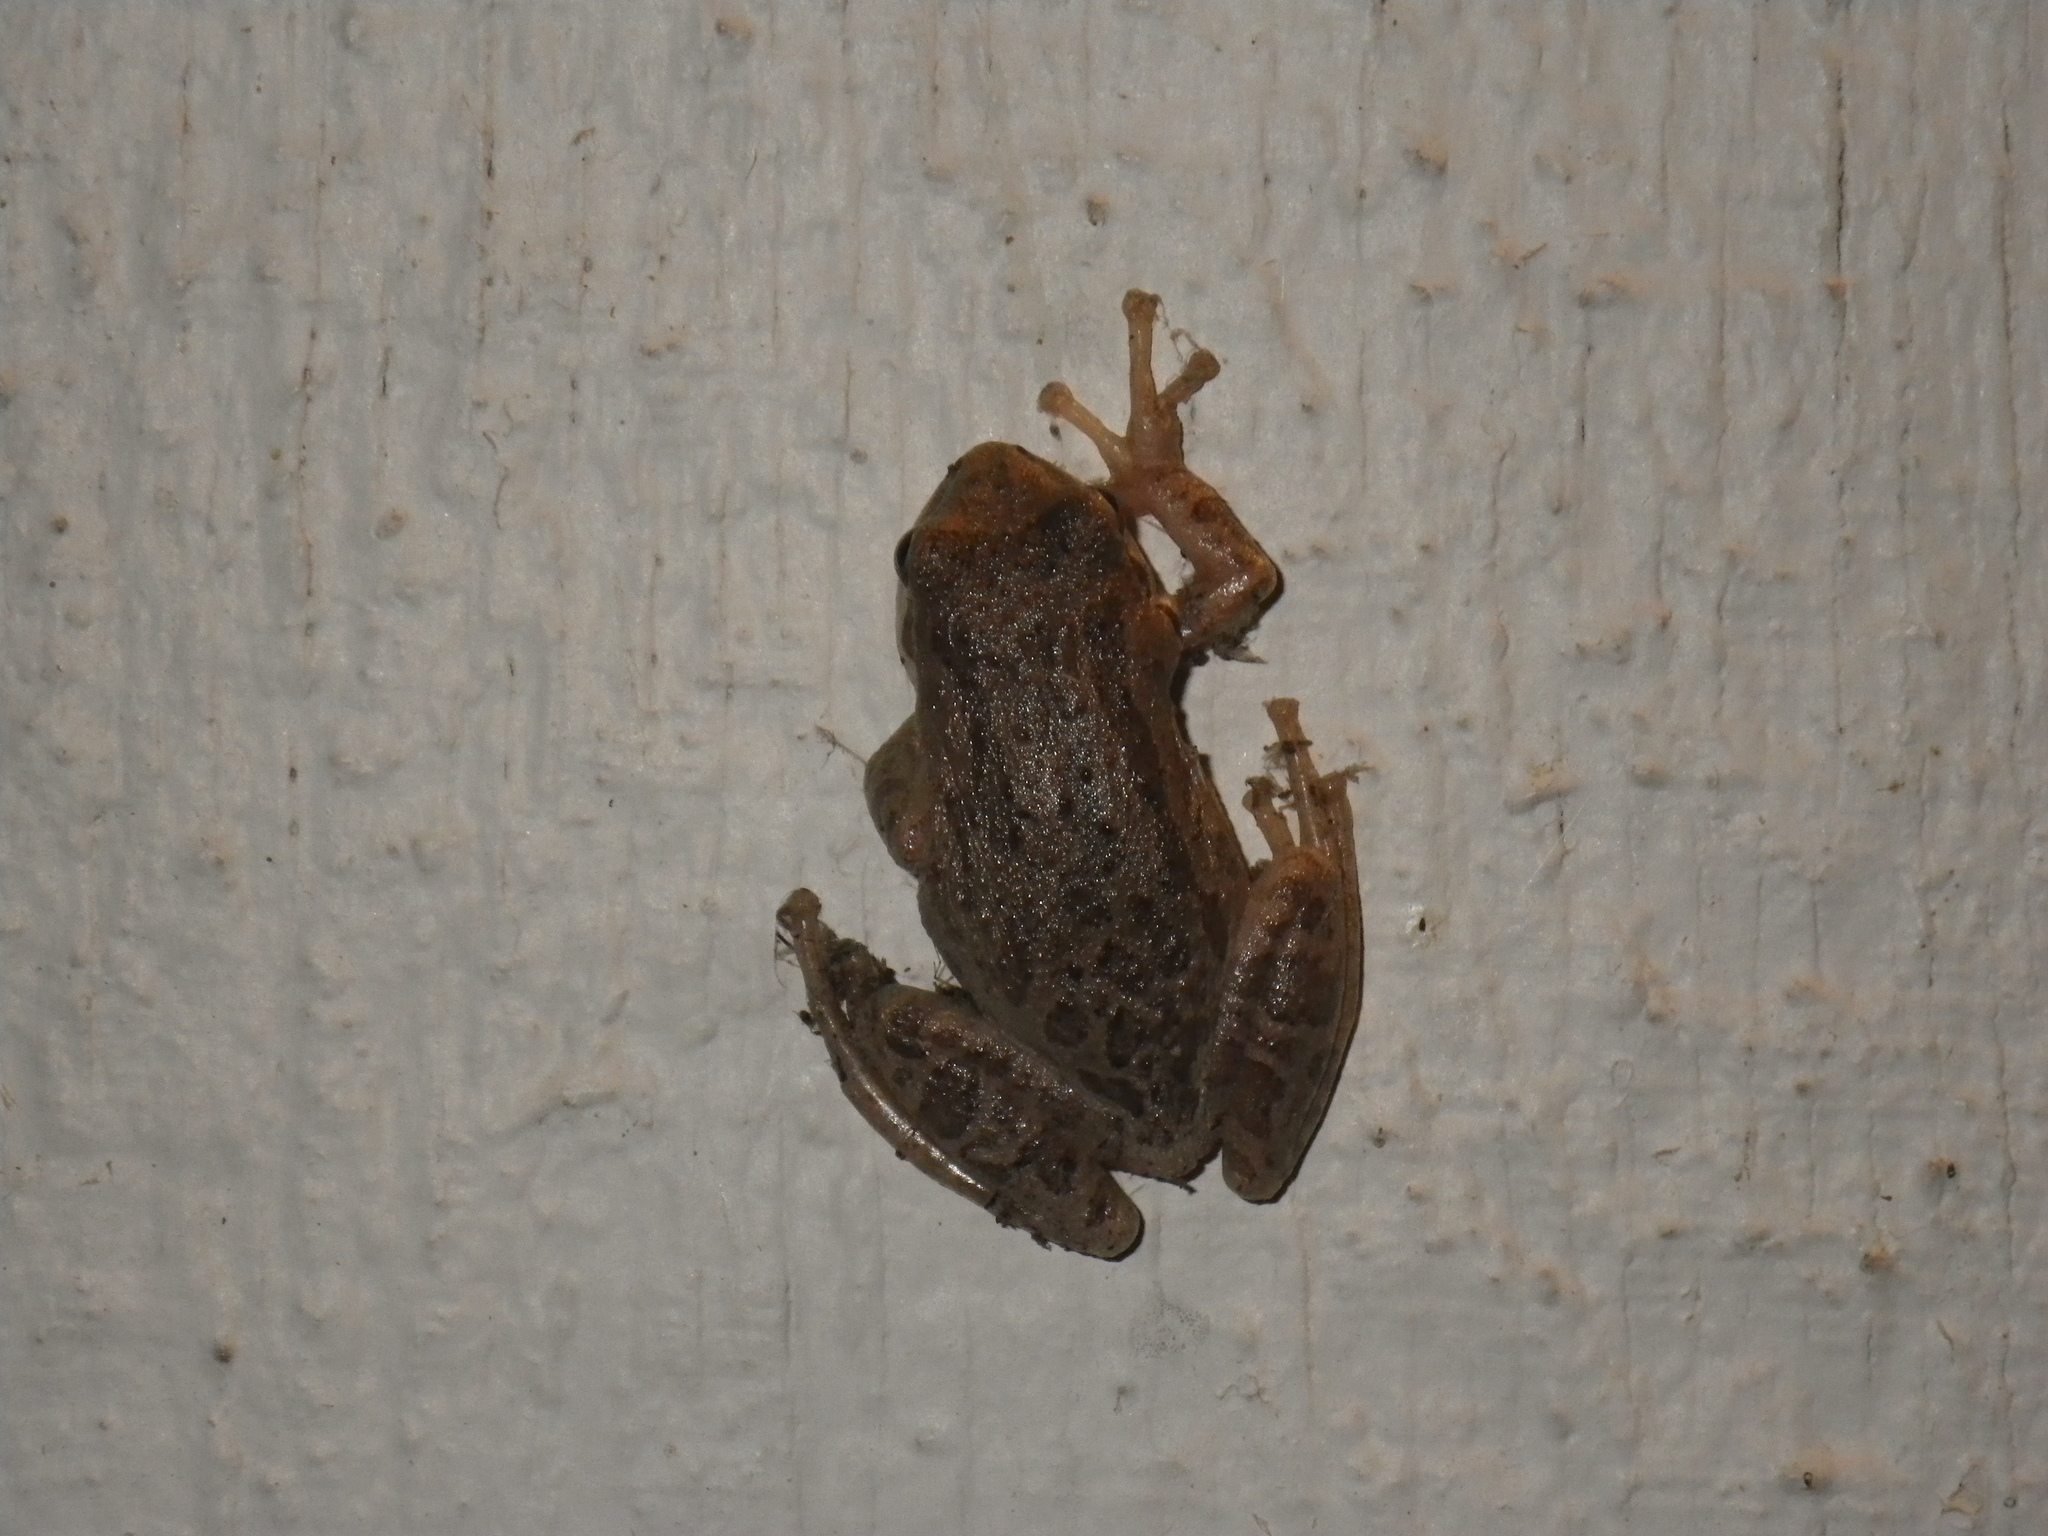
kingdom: Animalia
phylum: Chordata
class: Amphibia
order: Anura
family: Hylidae
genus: Pseudacris
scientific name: Pseudacris regilla
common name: Pacific chorus frog
